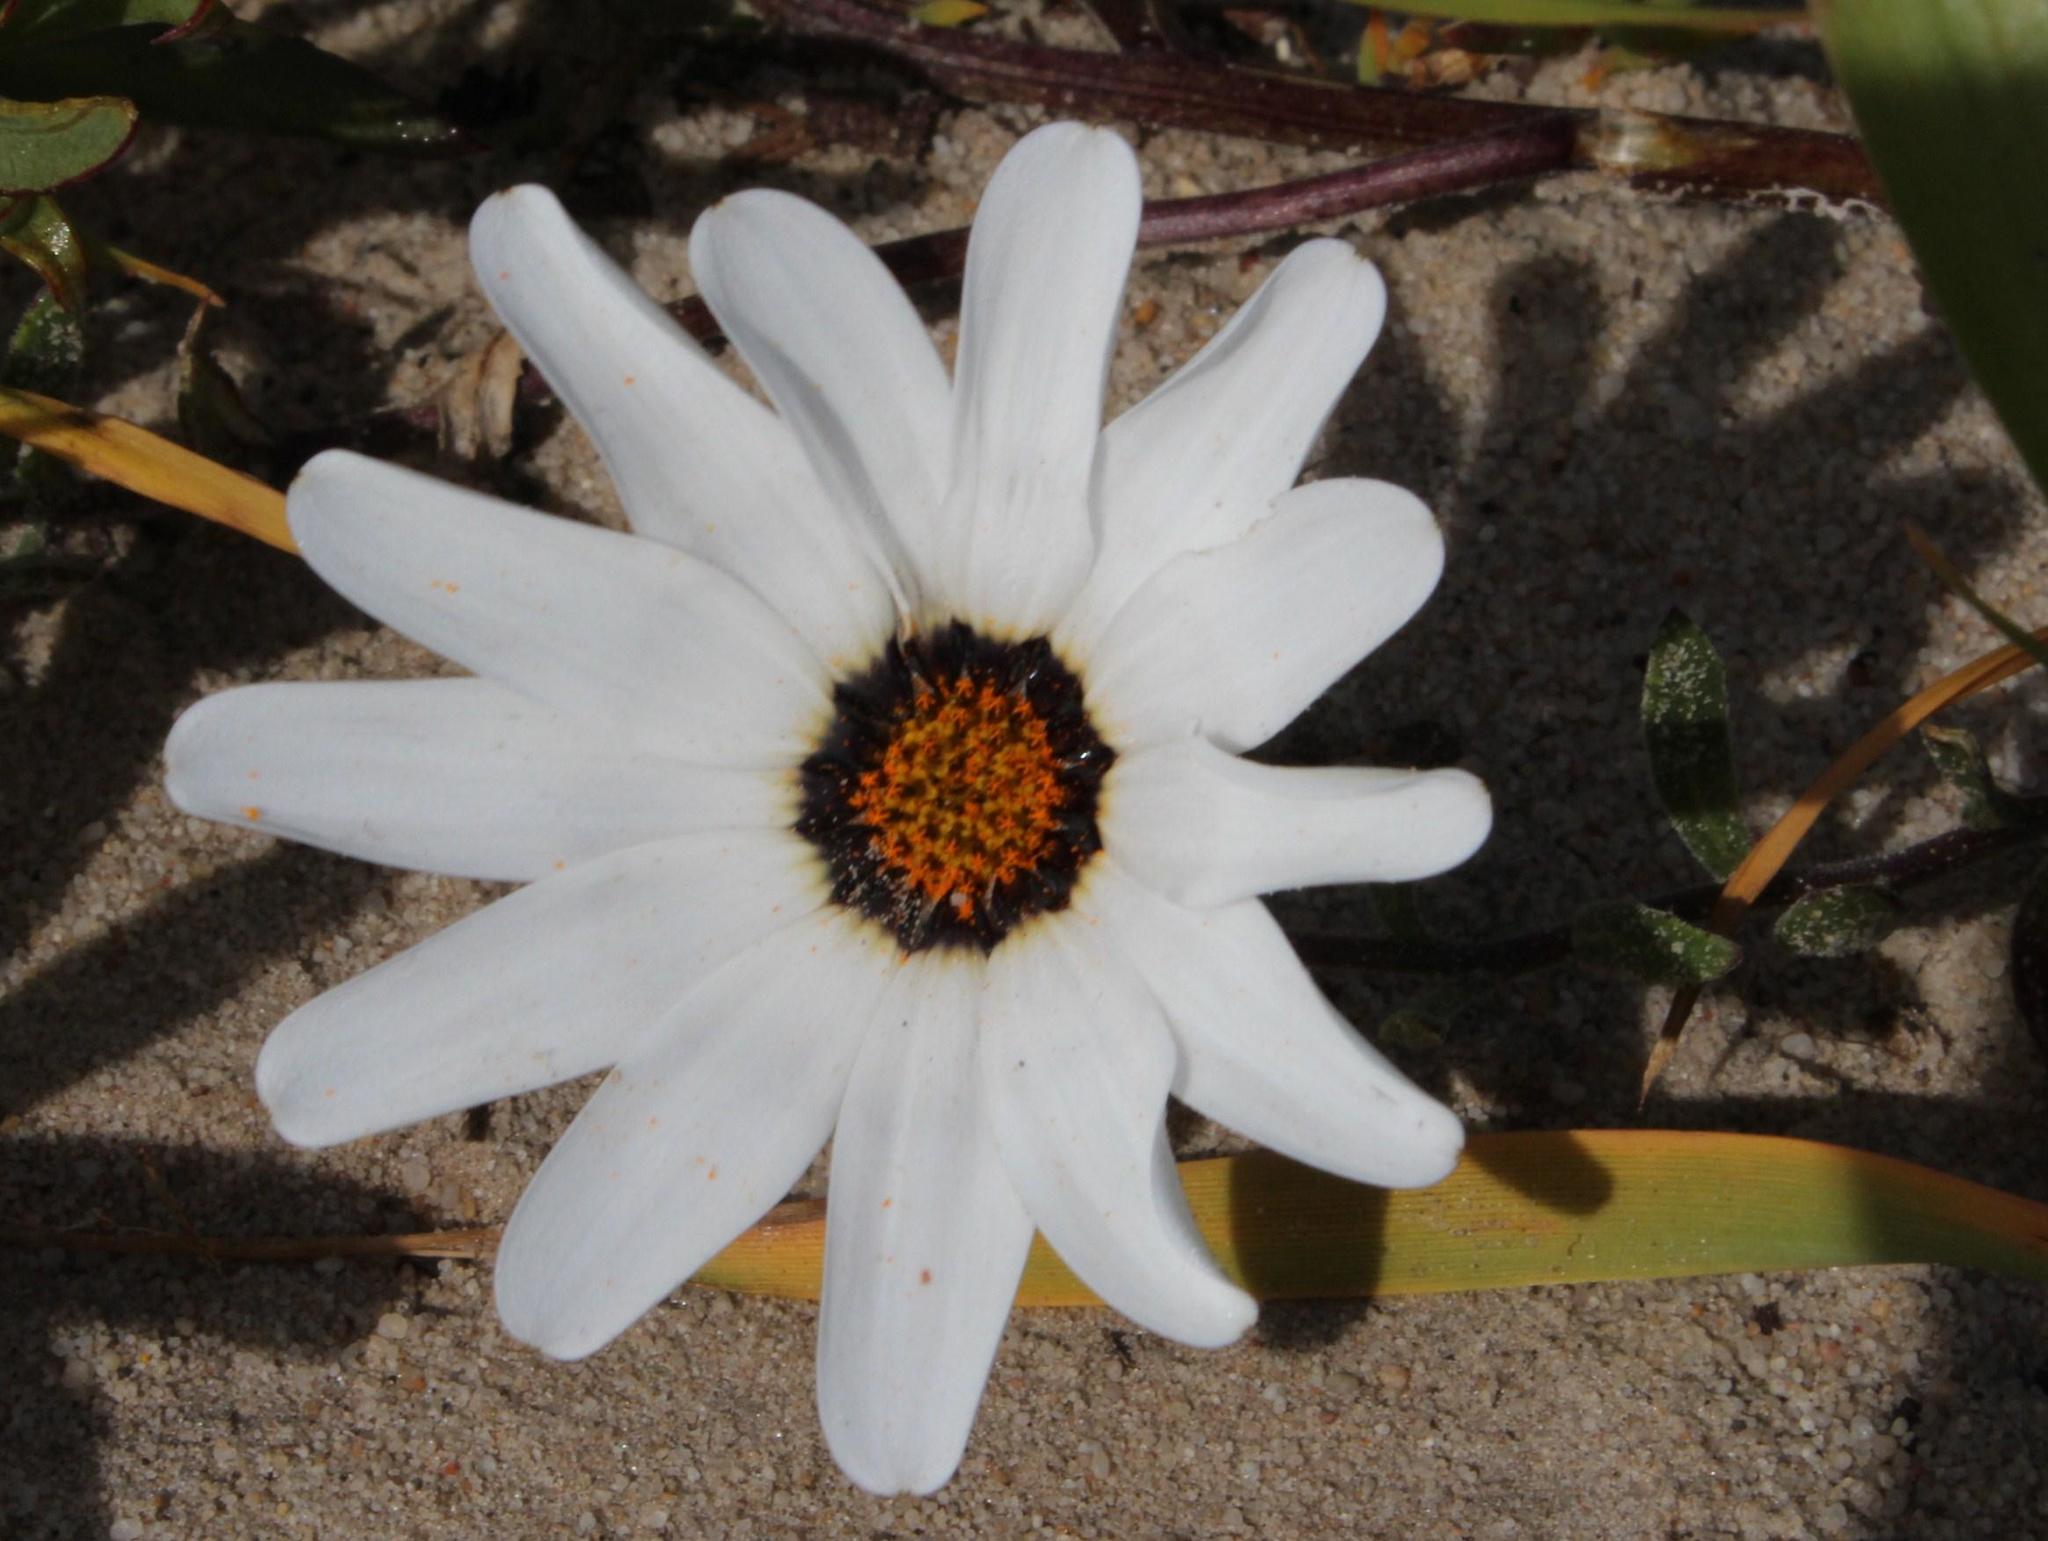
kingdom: Plantae
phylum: Tracheophyta
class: Magnoliopsida
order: Asterales
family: Asteraceae
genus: Dimorphotheca
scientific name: Dimorphotheca pluvialis
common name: Weather prophet
